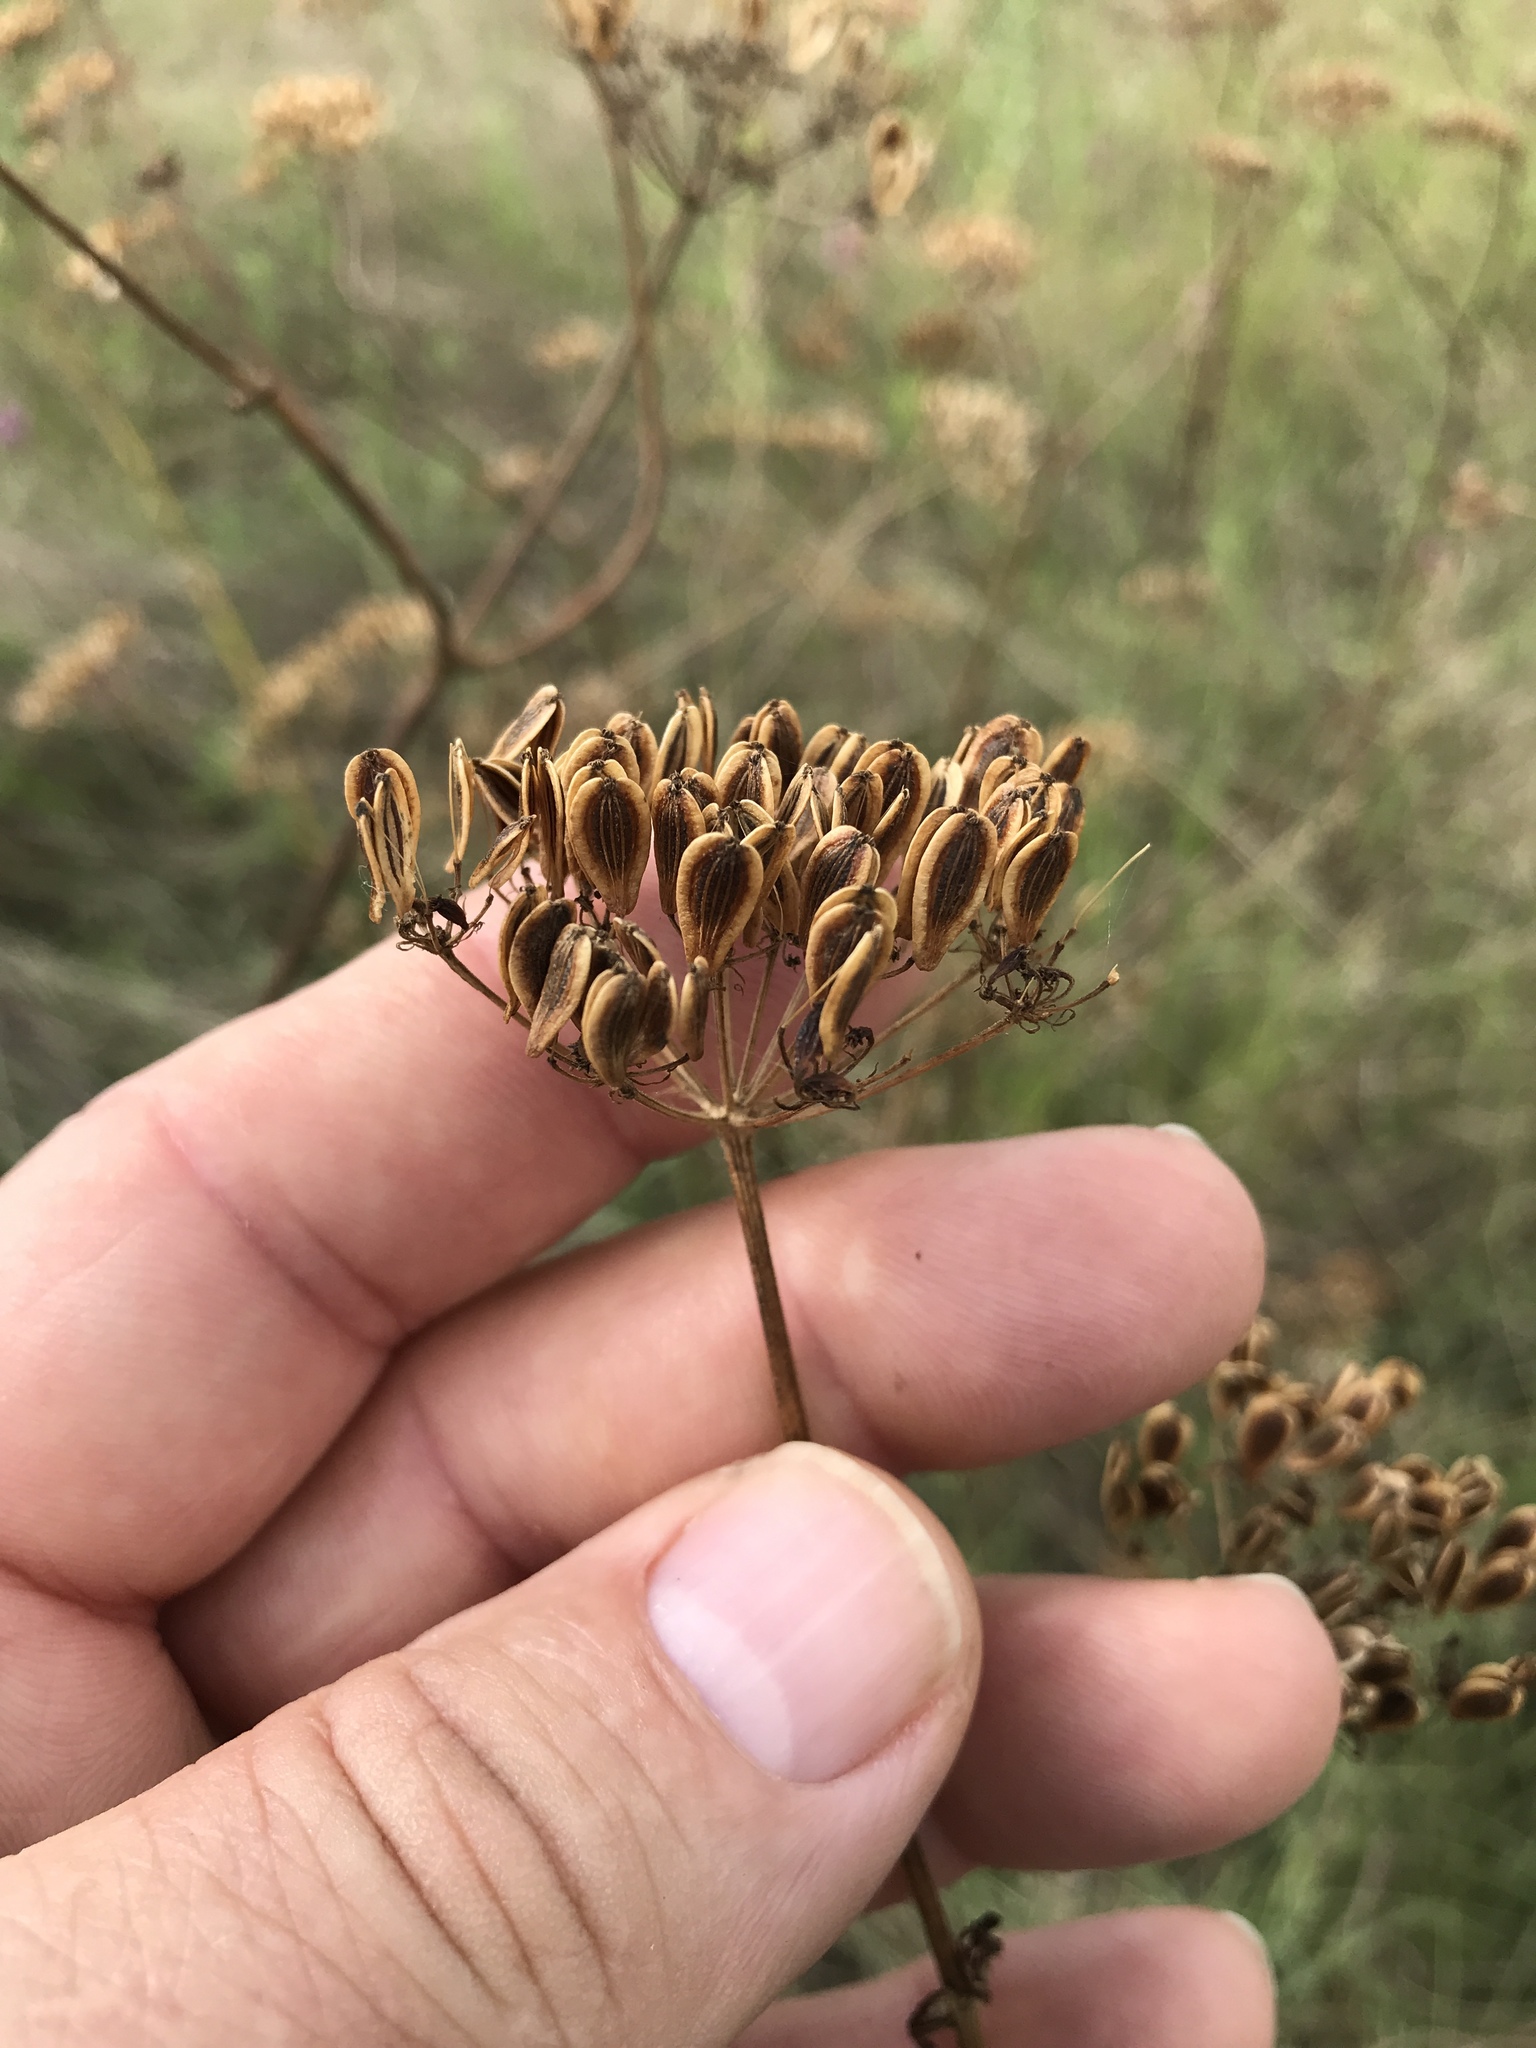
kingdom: Plantae
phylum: Tracheophyta
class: Magnoliopsida
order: Apiales
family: Apiaceae
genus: Polytaenia
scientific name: Polytaenia texana
